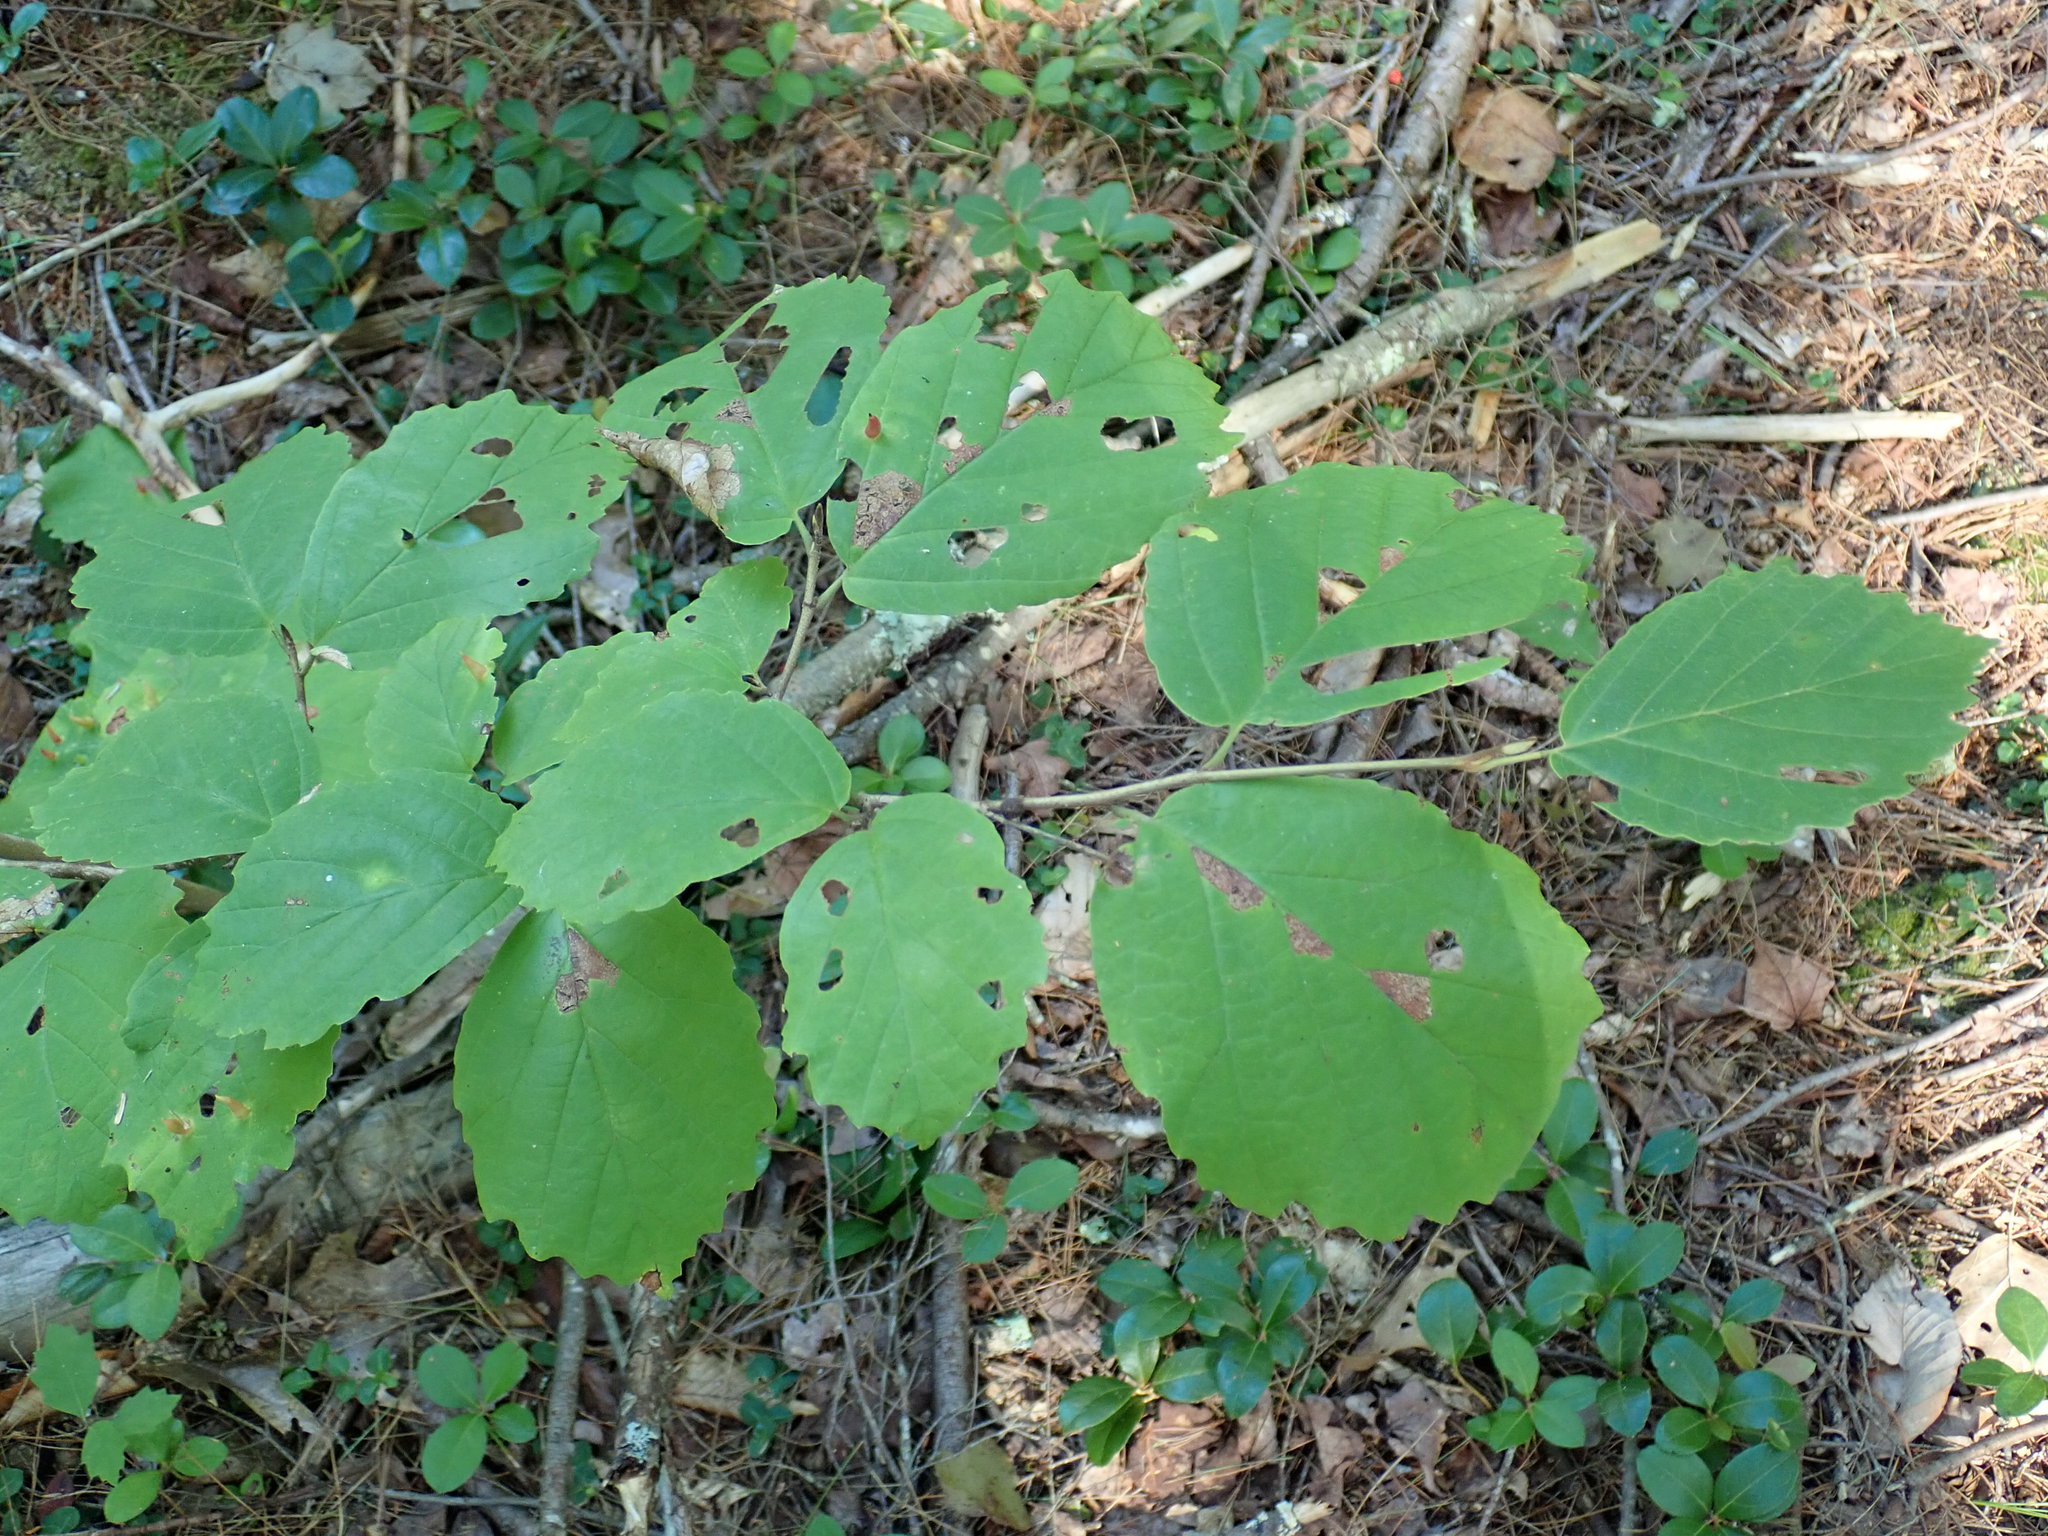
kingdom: Plantae
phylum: Tracheophyta
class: Magnoliopsida
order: Saxifragales
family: Hamamelidaceae
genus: Hamamelis
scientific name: Hamamelis virginiana
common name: Witch-hazel
